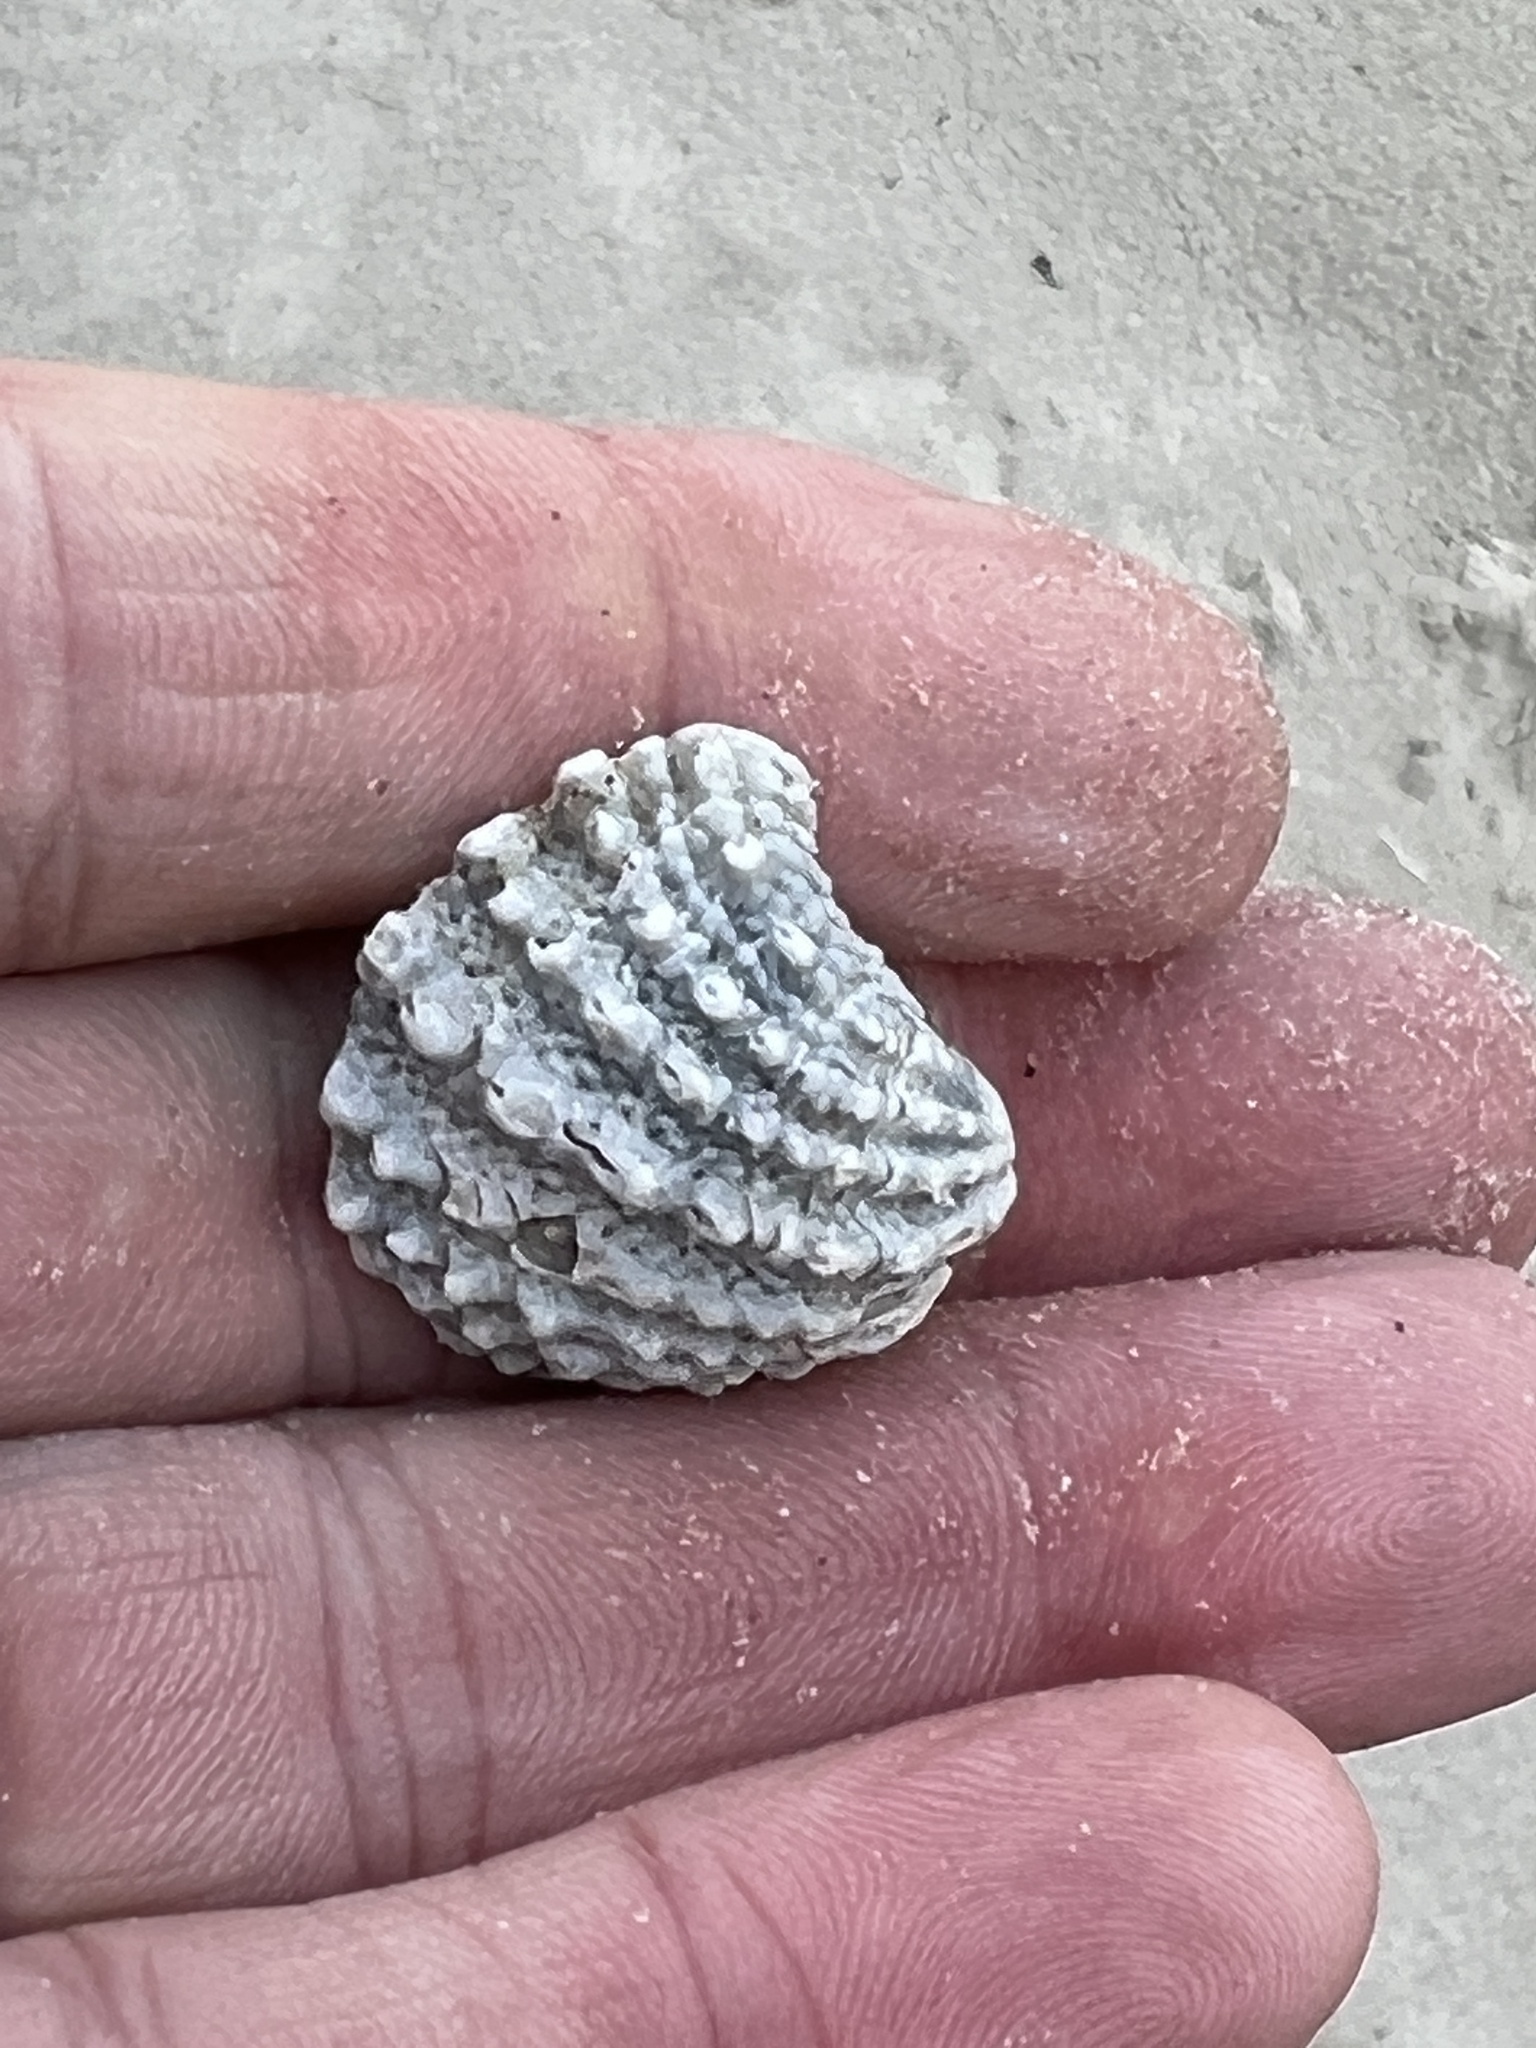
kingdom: Animalia
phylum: Mollusca
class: Bivalvia
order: Venerida
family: Chamidae
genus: Arcinella
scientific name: Arcinella cornuta
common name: Florida spiny jewel box
